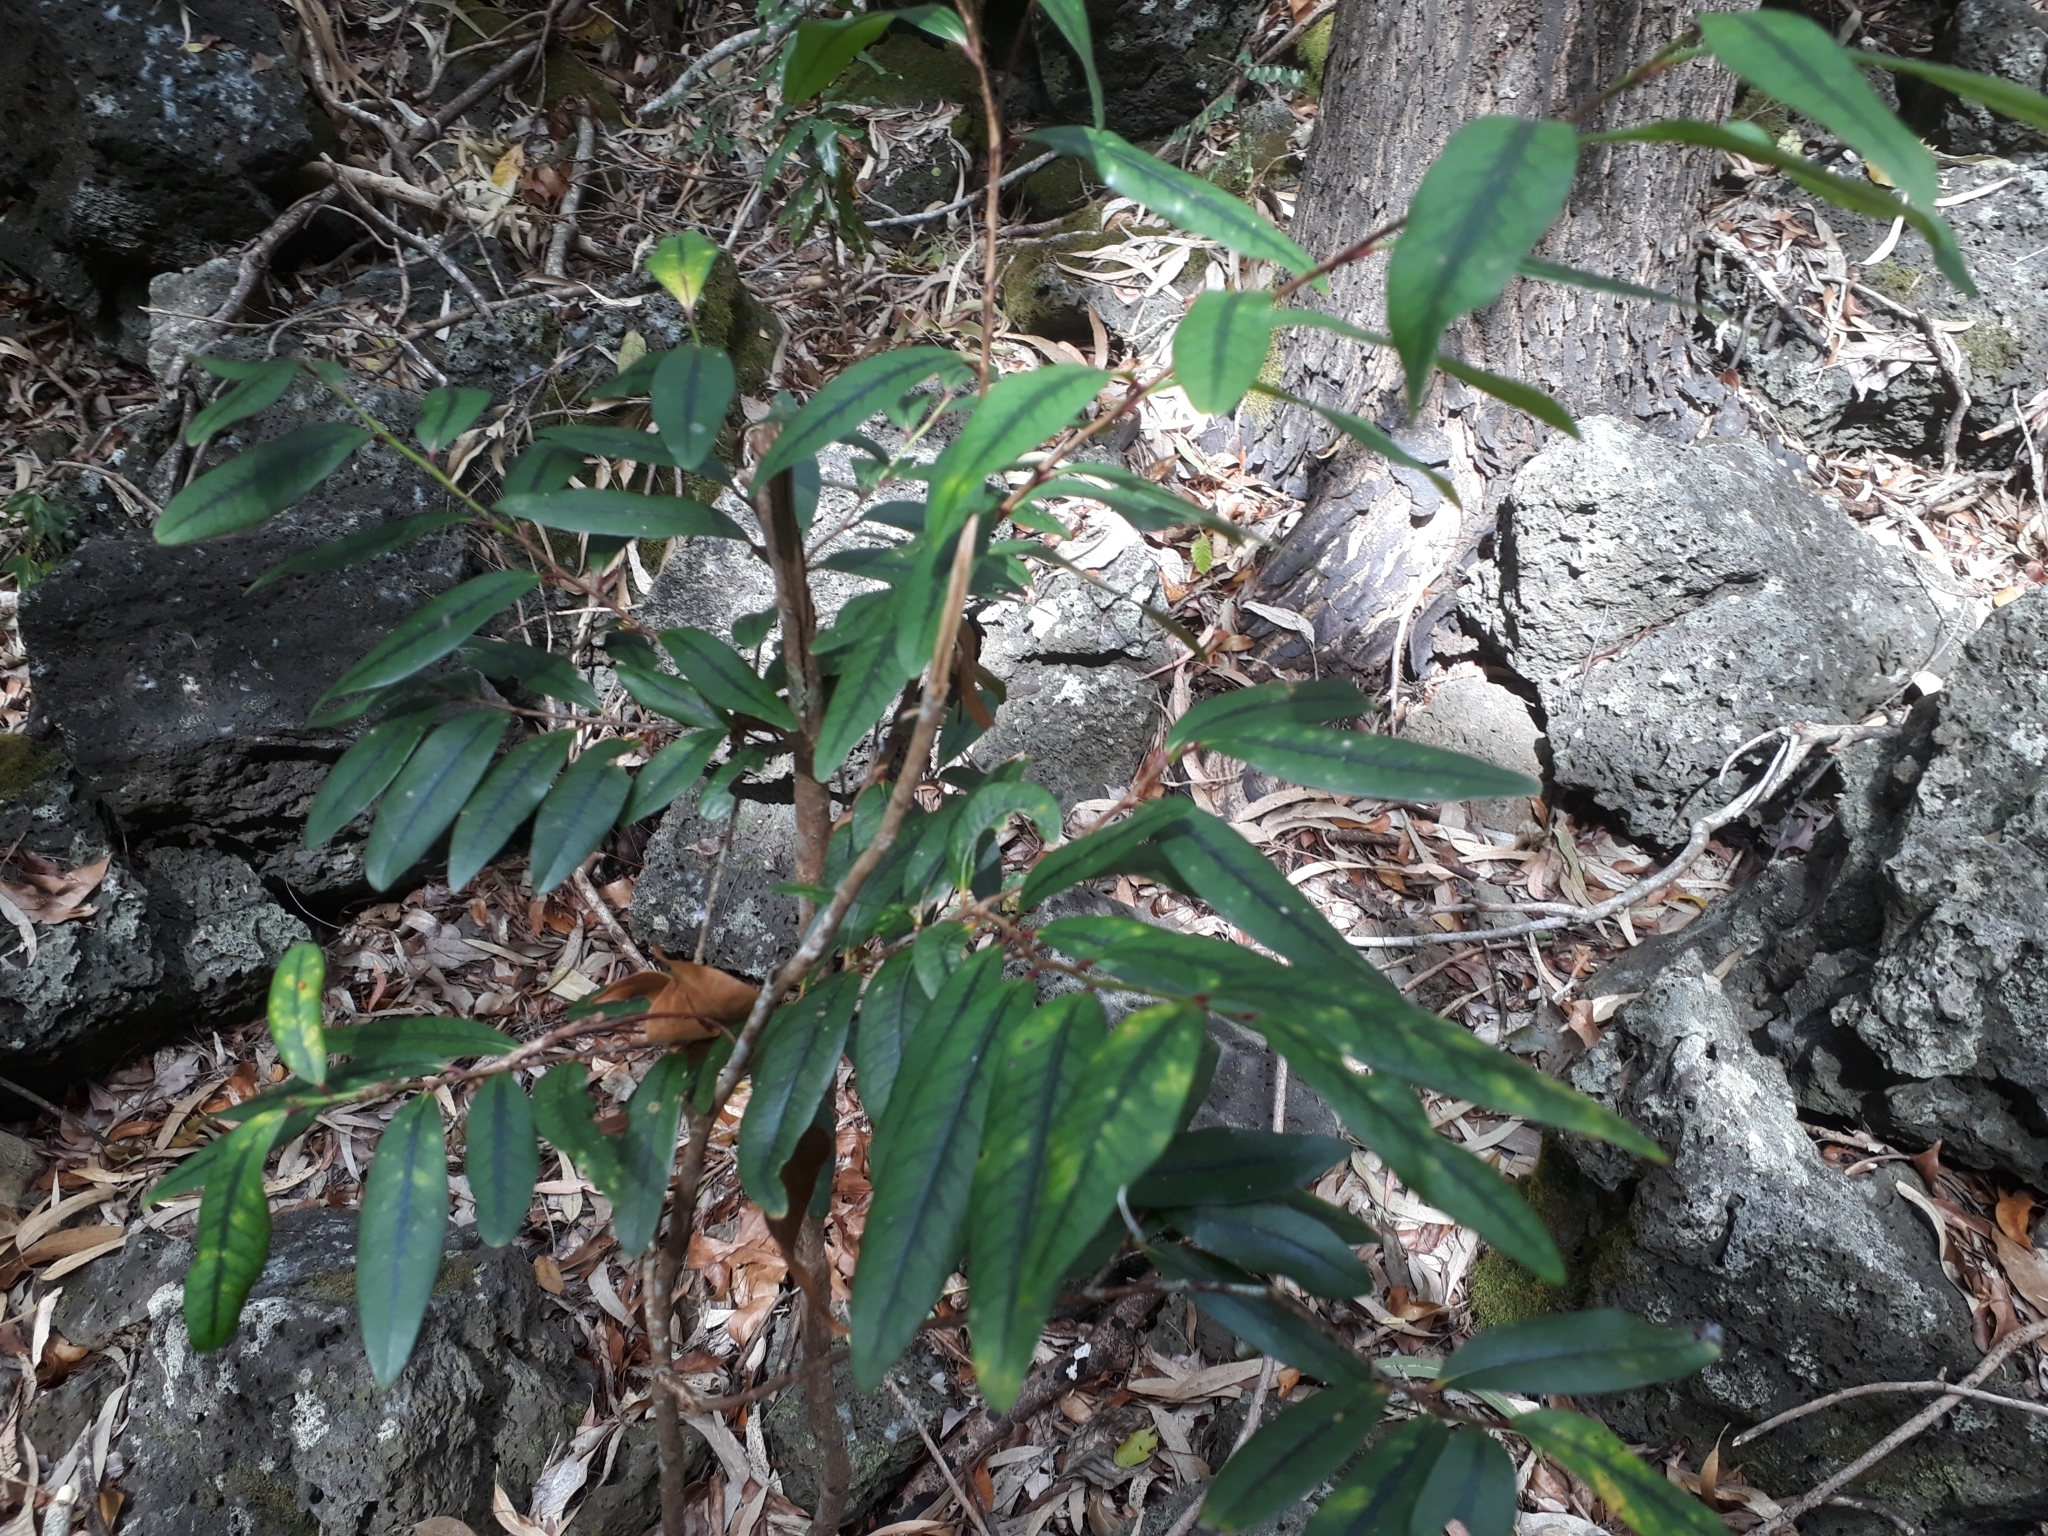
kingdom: Plantae
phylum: Tracheophyta
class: Magnoliopsida
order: Malpighiales
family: Erythroxylaceae
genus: Erythroxylum
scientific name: Erythroxylum sideroxyloides
